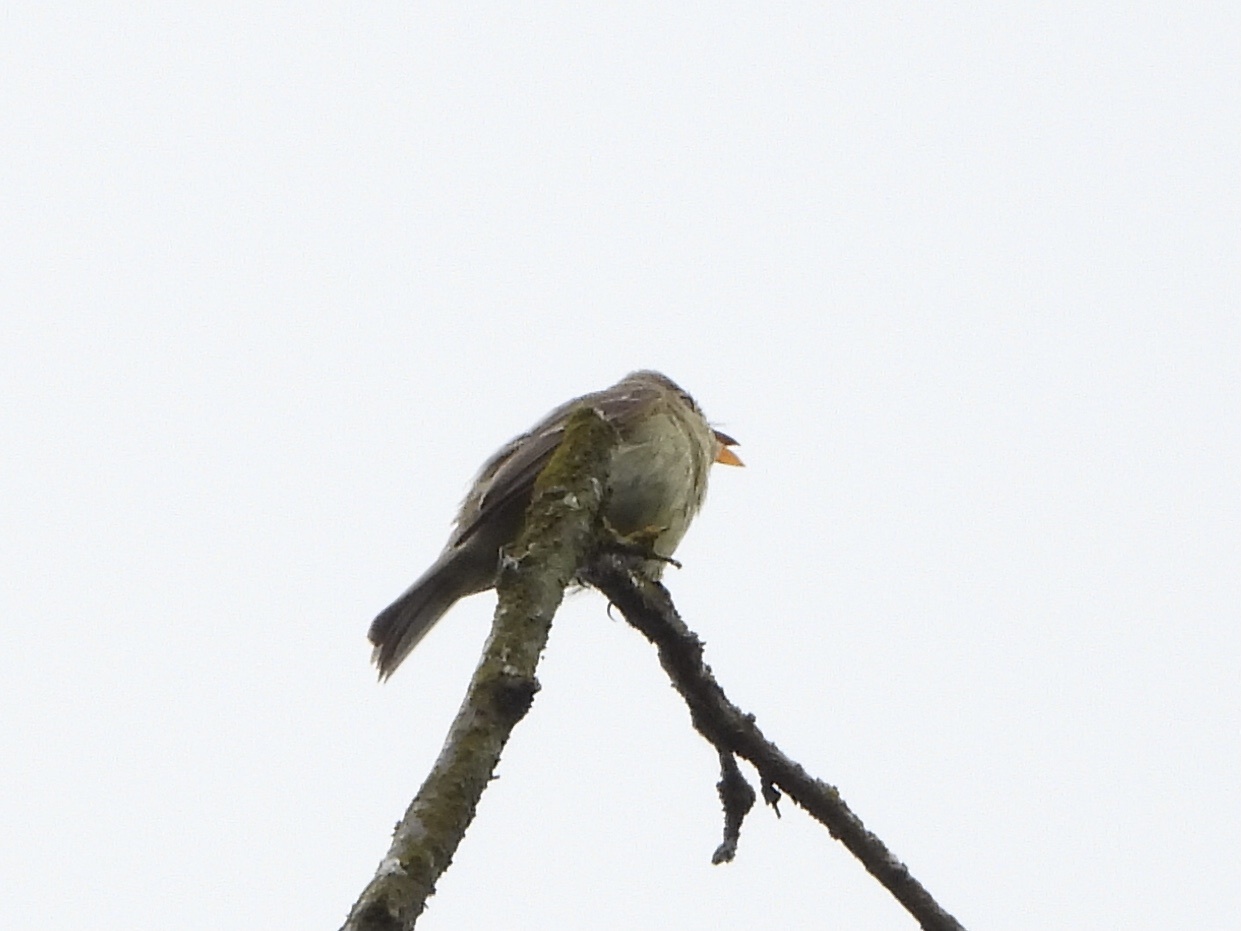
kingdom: Animalia
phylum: Chordata
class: Aves
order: Passeriformes
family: Tyrannidae
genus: Empidonax
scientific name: Empidonax difficilis
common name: Pacific-slope flycatcher
